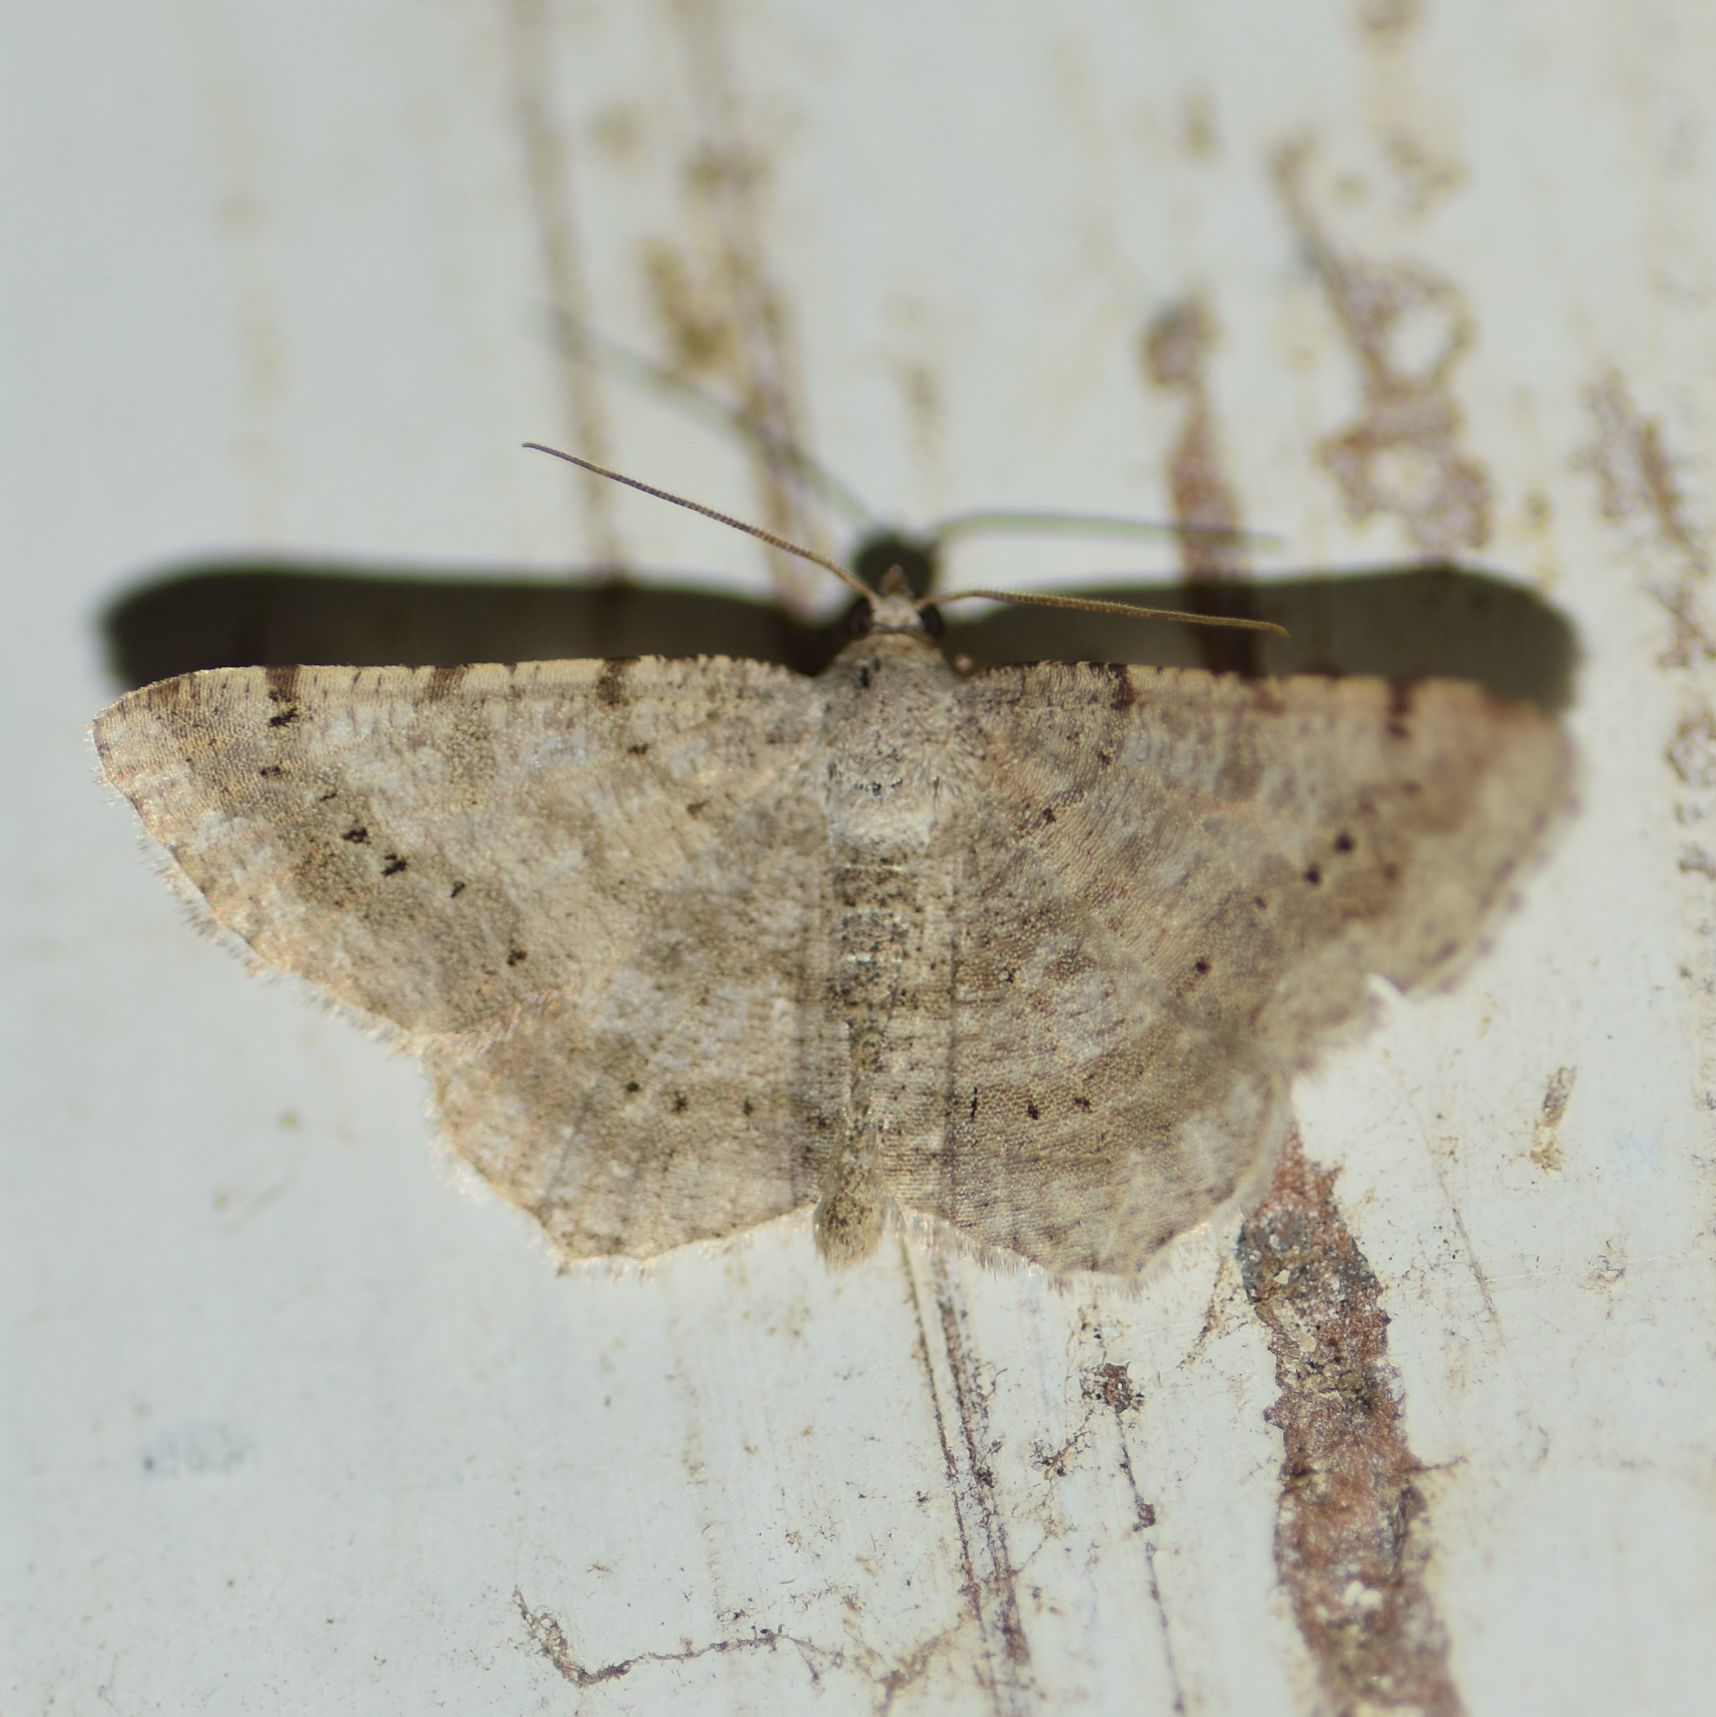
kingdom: Animalia
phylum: Arthropoda
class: Insecta
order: Lepidoptera
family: Geometridae
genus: Digrammia
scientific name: Digrammia ocellinata
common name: Faint-spotted angle
